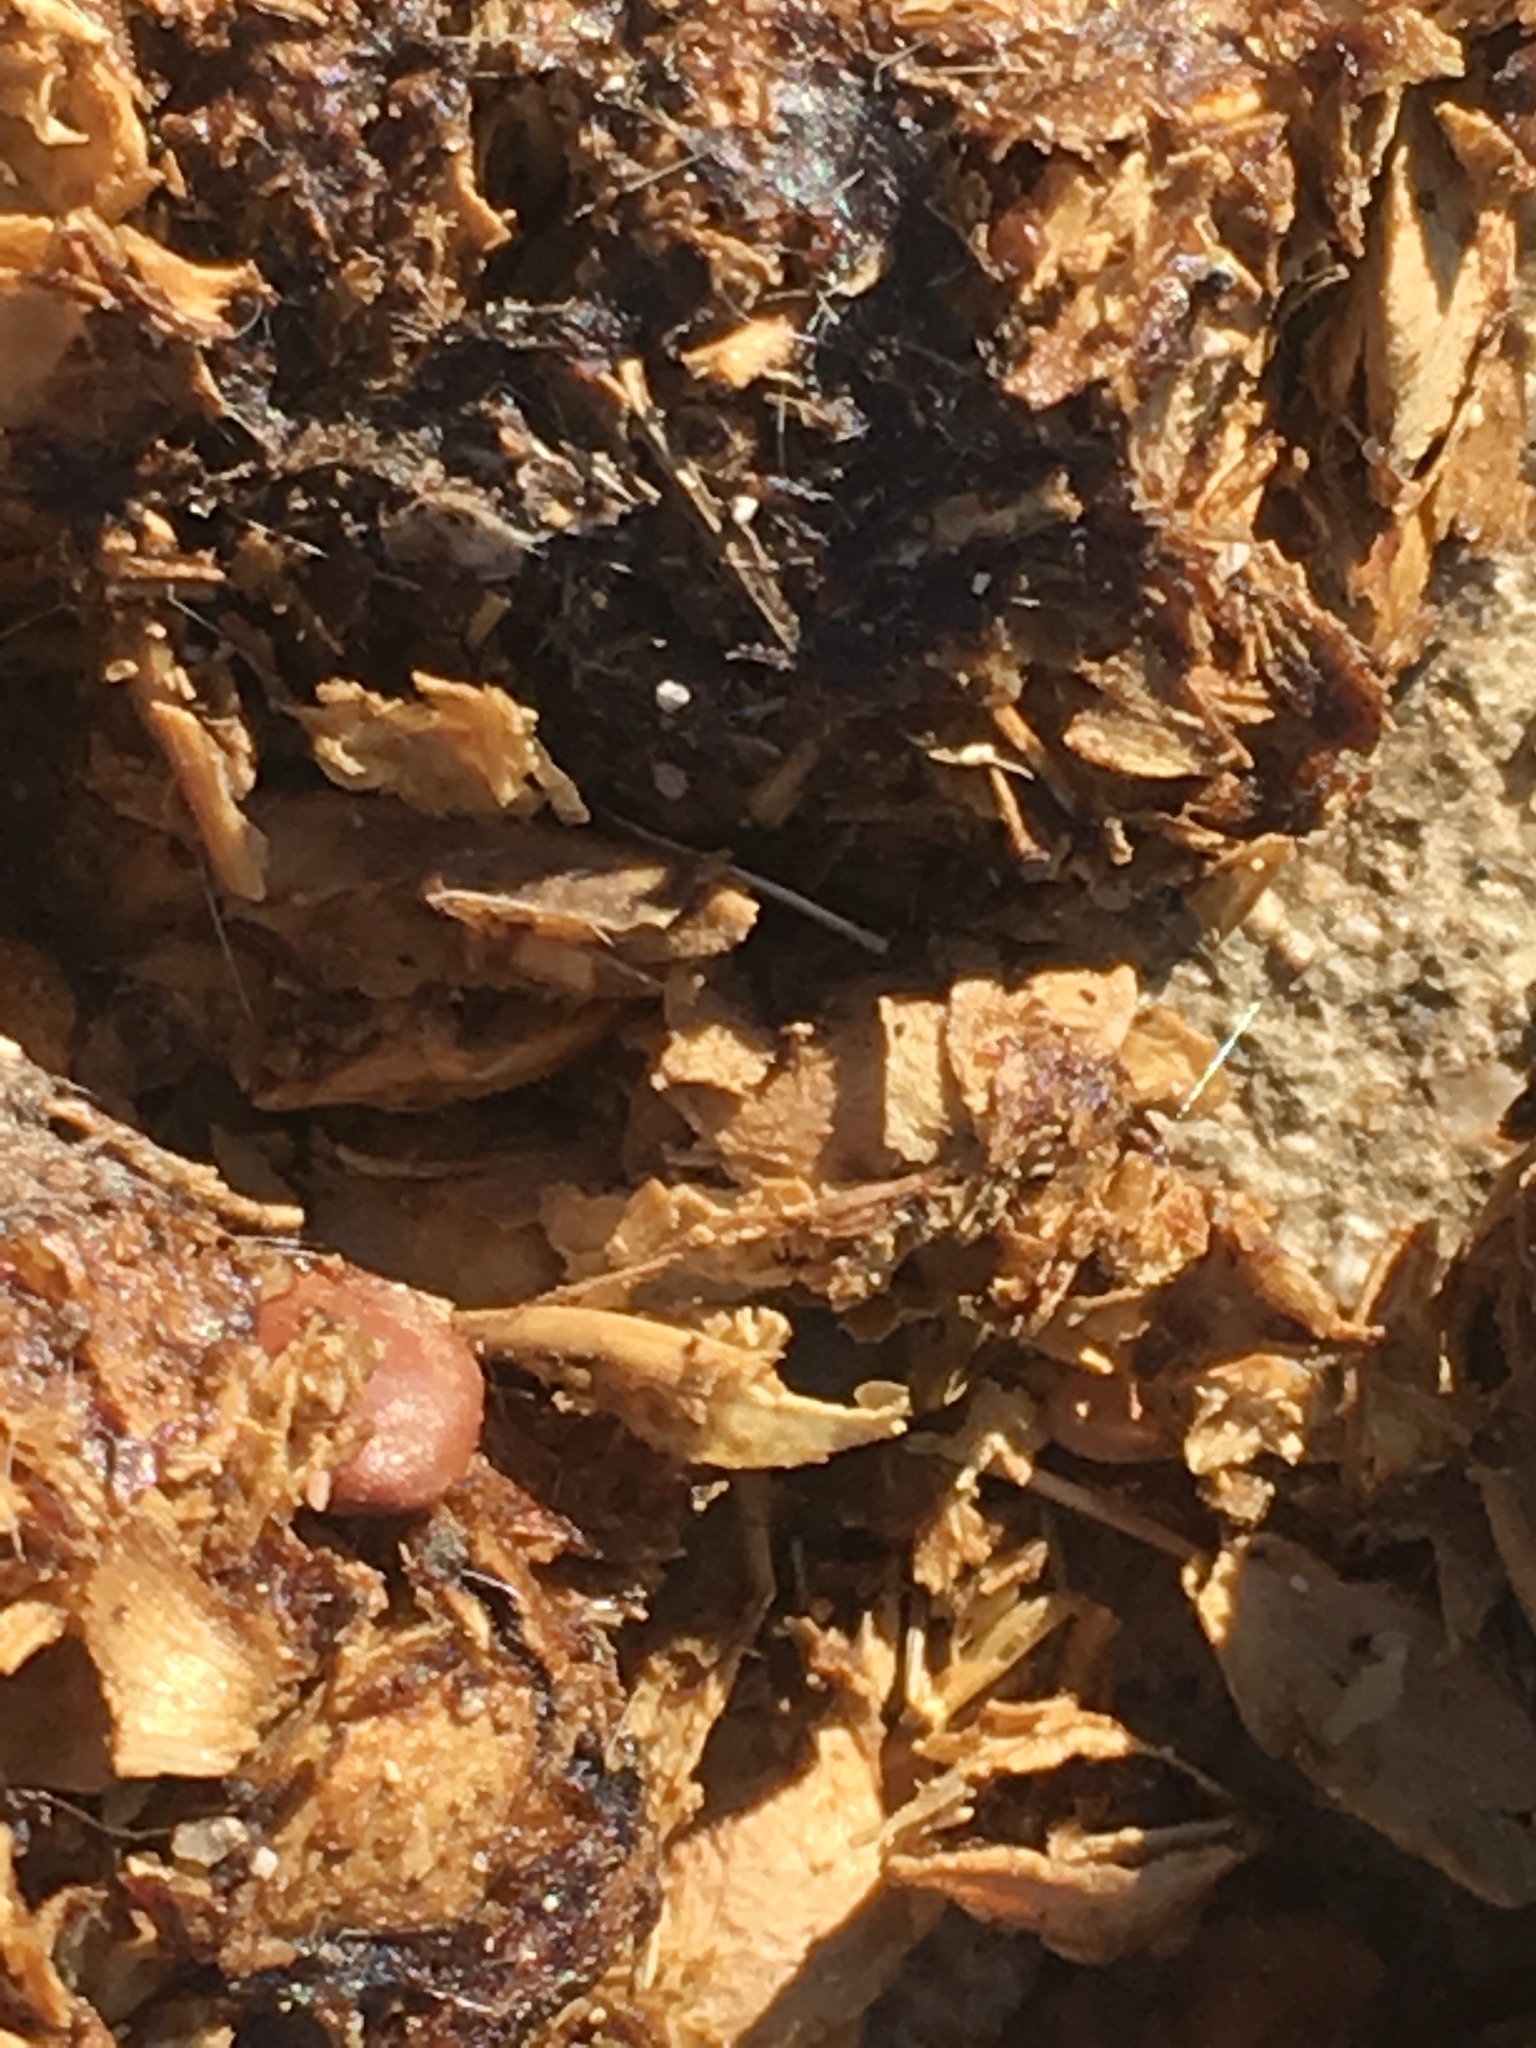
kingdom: Animalia
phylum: Chordata
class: Mammalia
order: Carnivora
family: Canidae
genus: Canis
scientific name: Canis latrans
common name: Coyote
